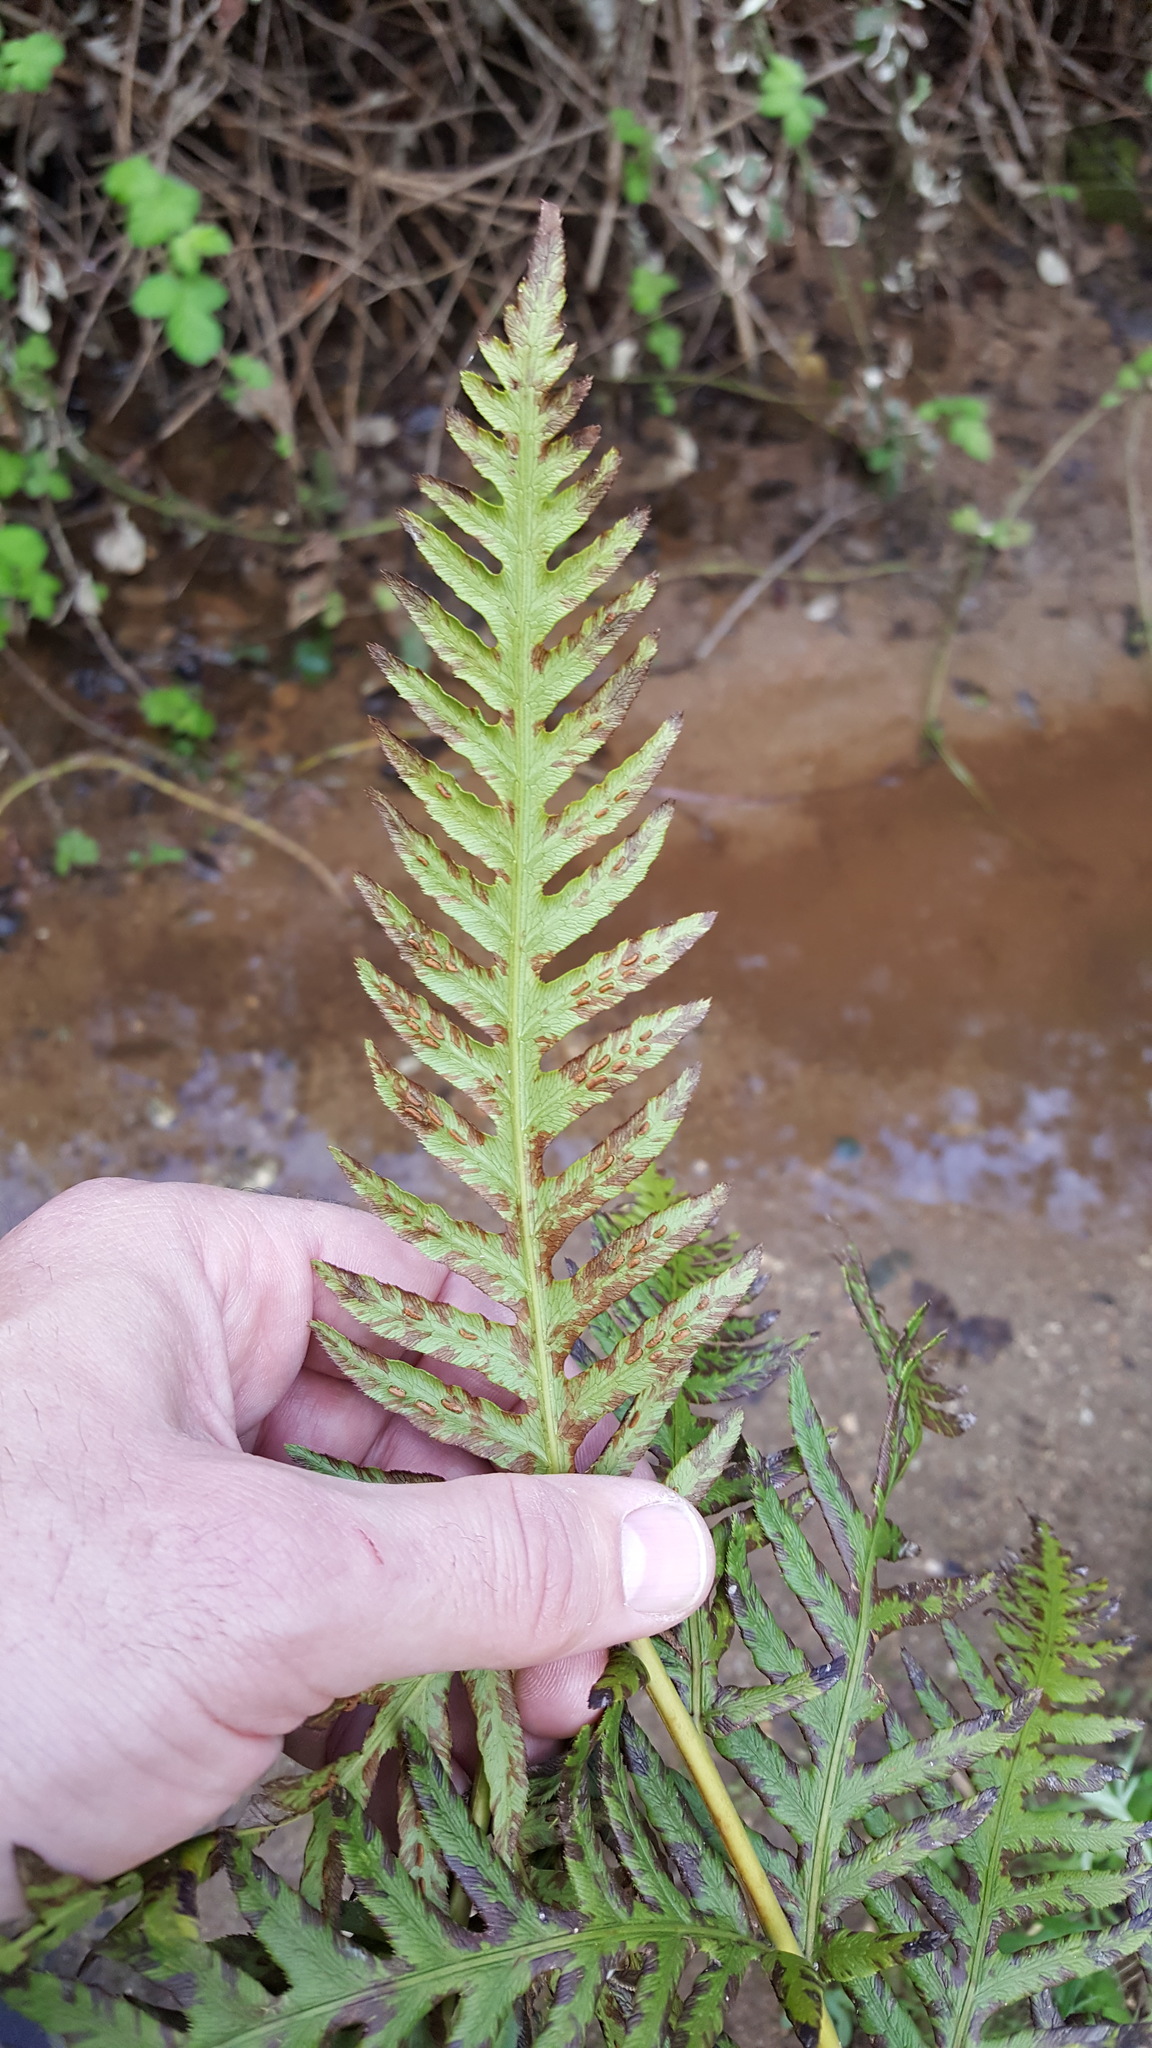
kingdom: Plantae
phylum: Tracheophyta
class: Polypodiopsida
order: Polypodiales
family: Blechnaceae
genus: Woodwardia
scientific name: Woodwardia fimbriata
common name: Giant chain fern
